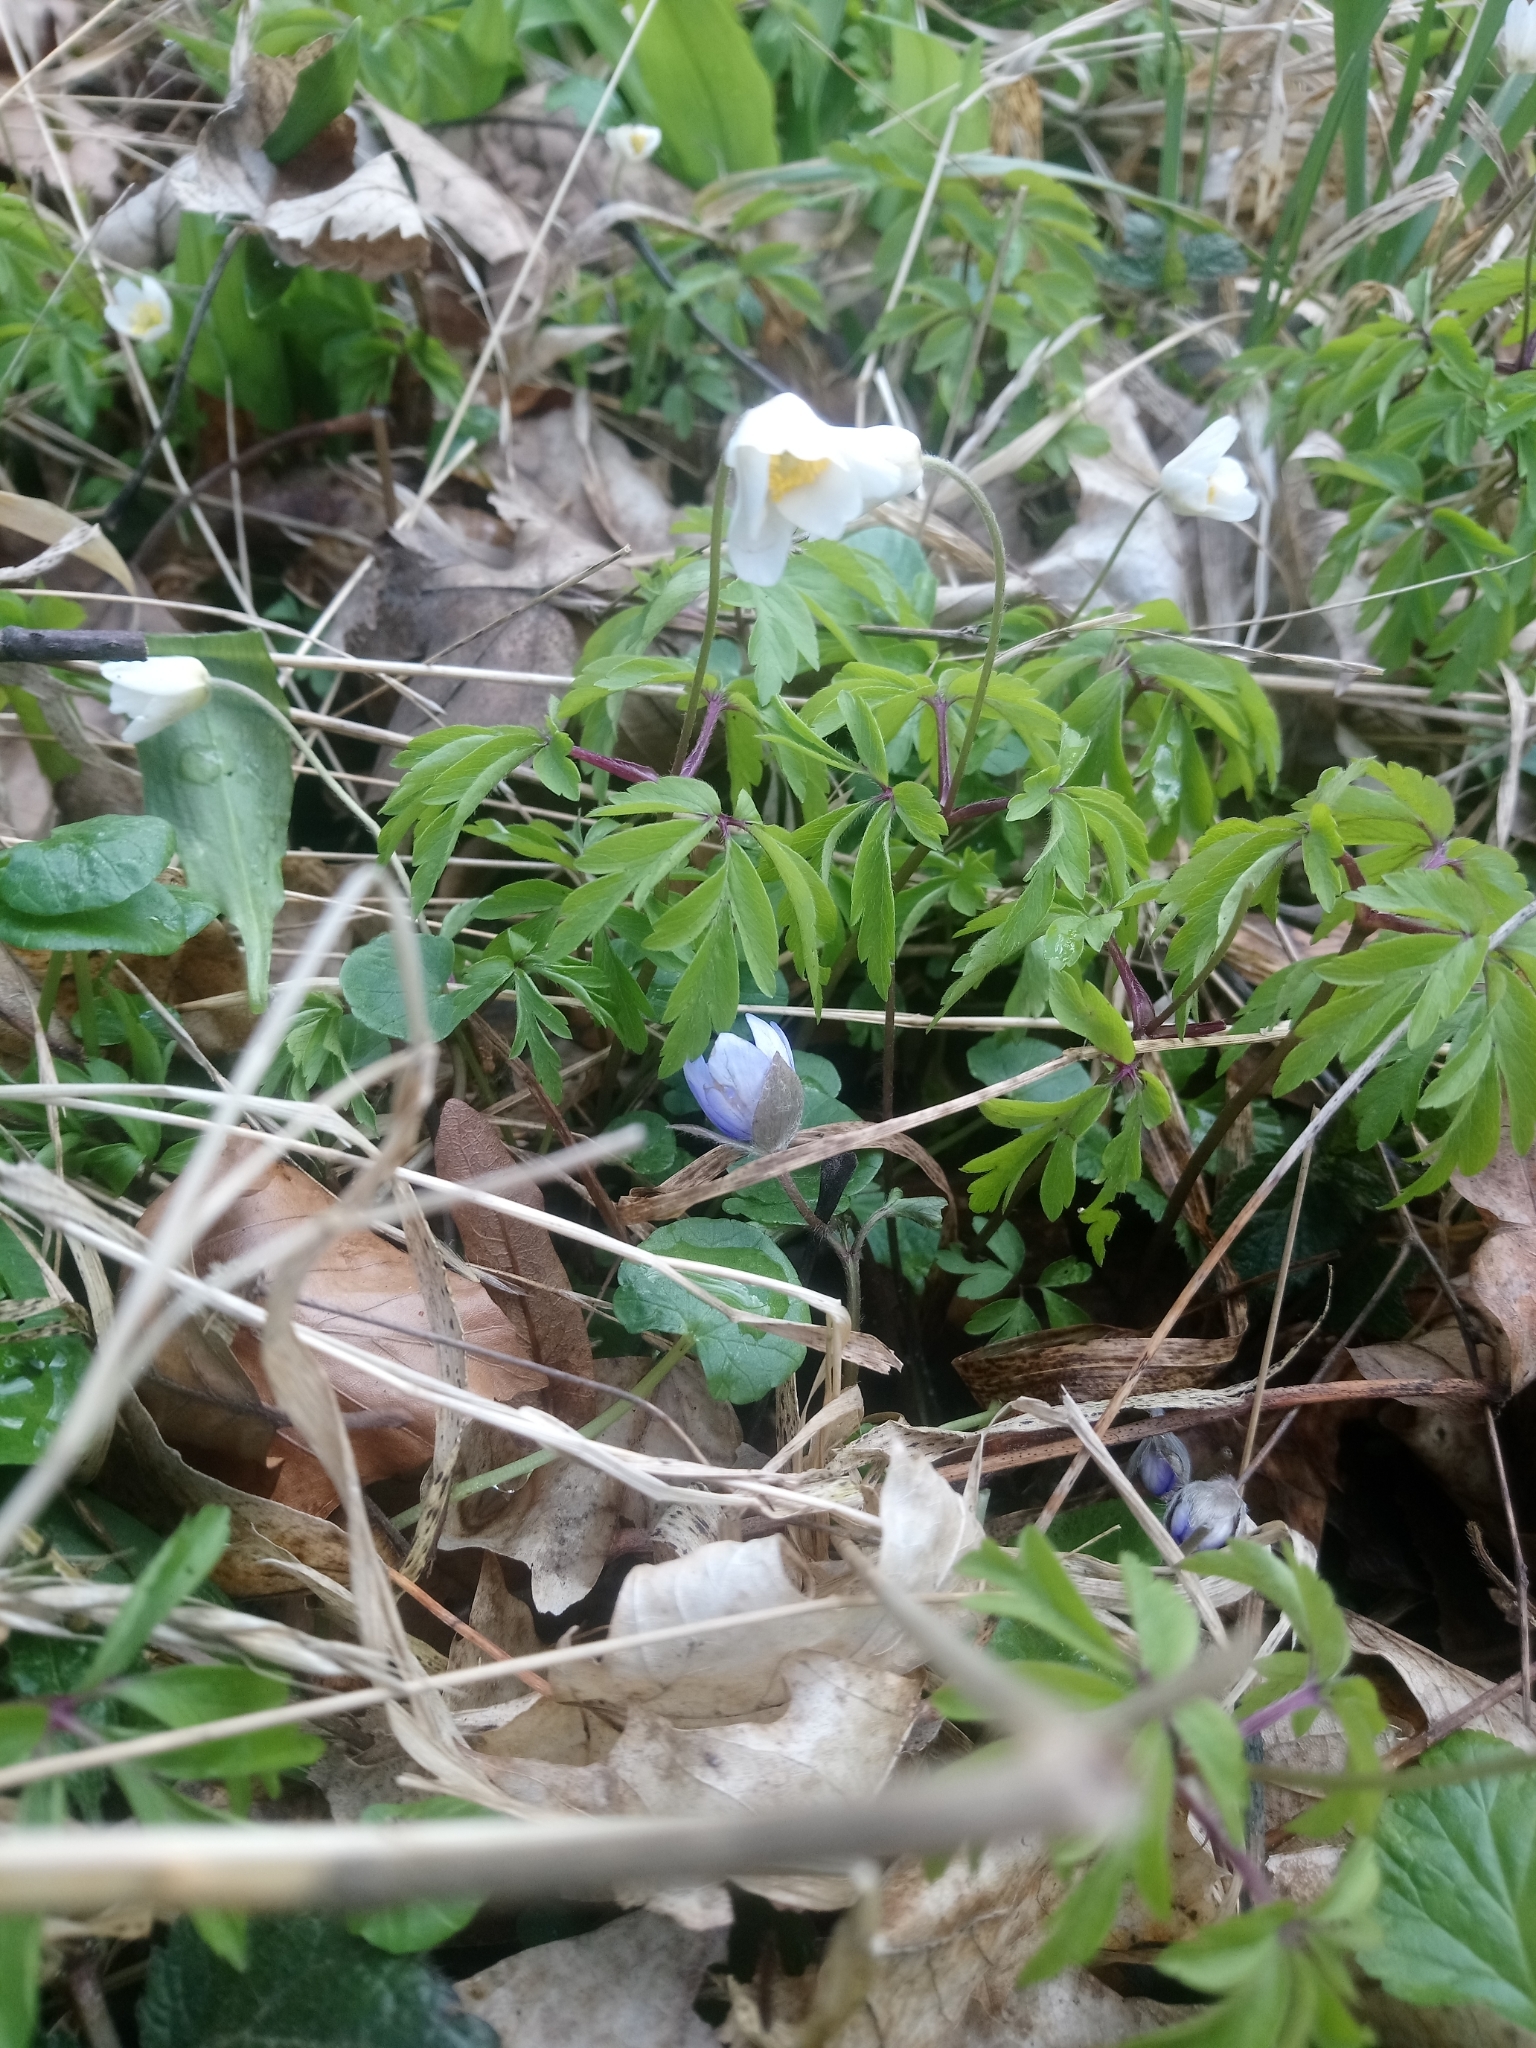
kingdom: Plantae
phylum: Tracheophyta
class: Magnoliopsida
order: Ranunculales
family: Ranunculaceae
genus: Anemone
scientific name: Anemone nemorosa
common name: Wood anemone
